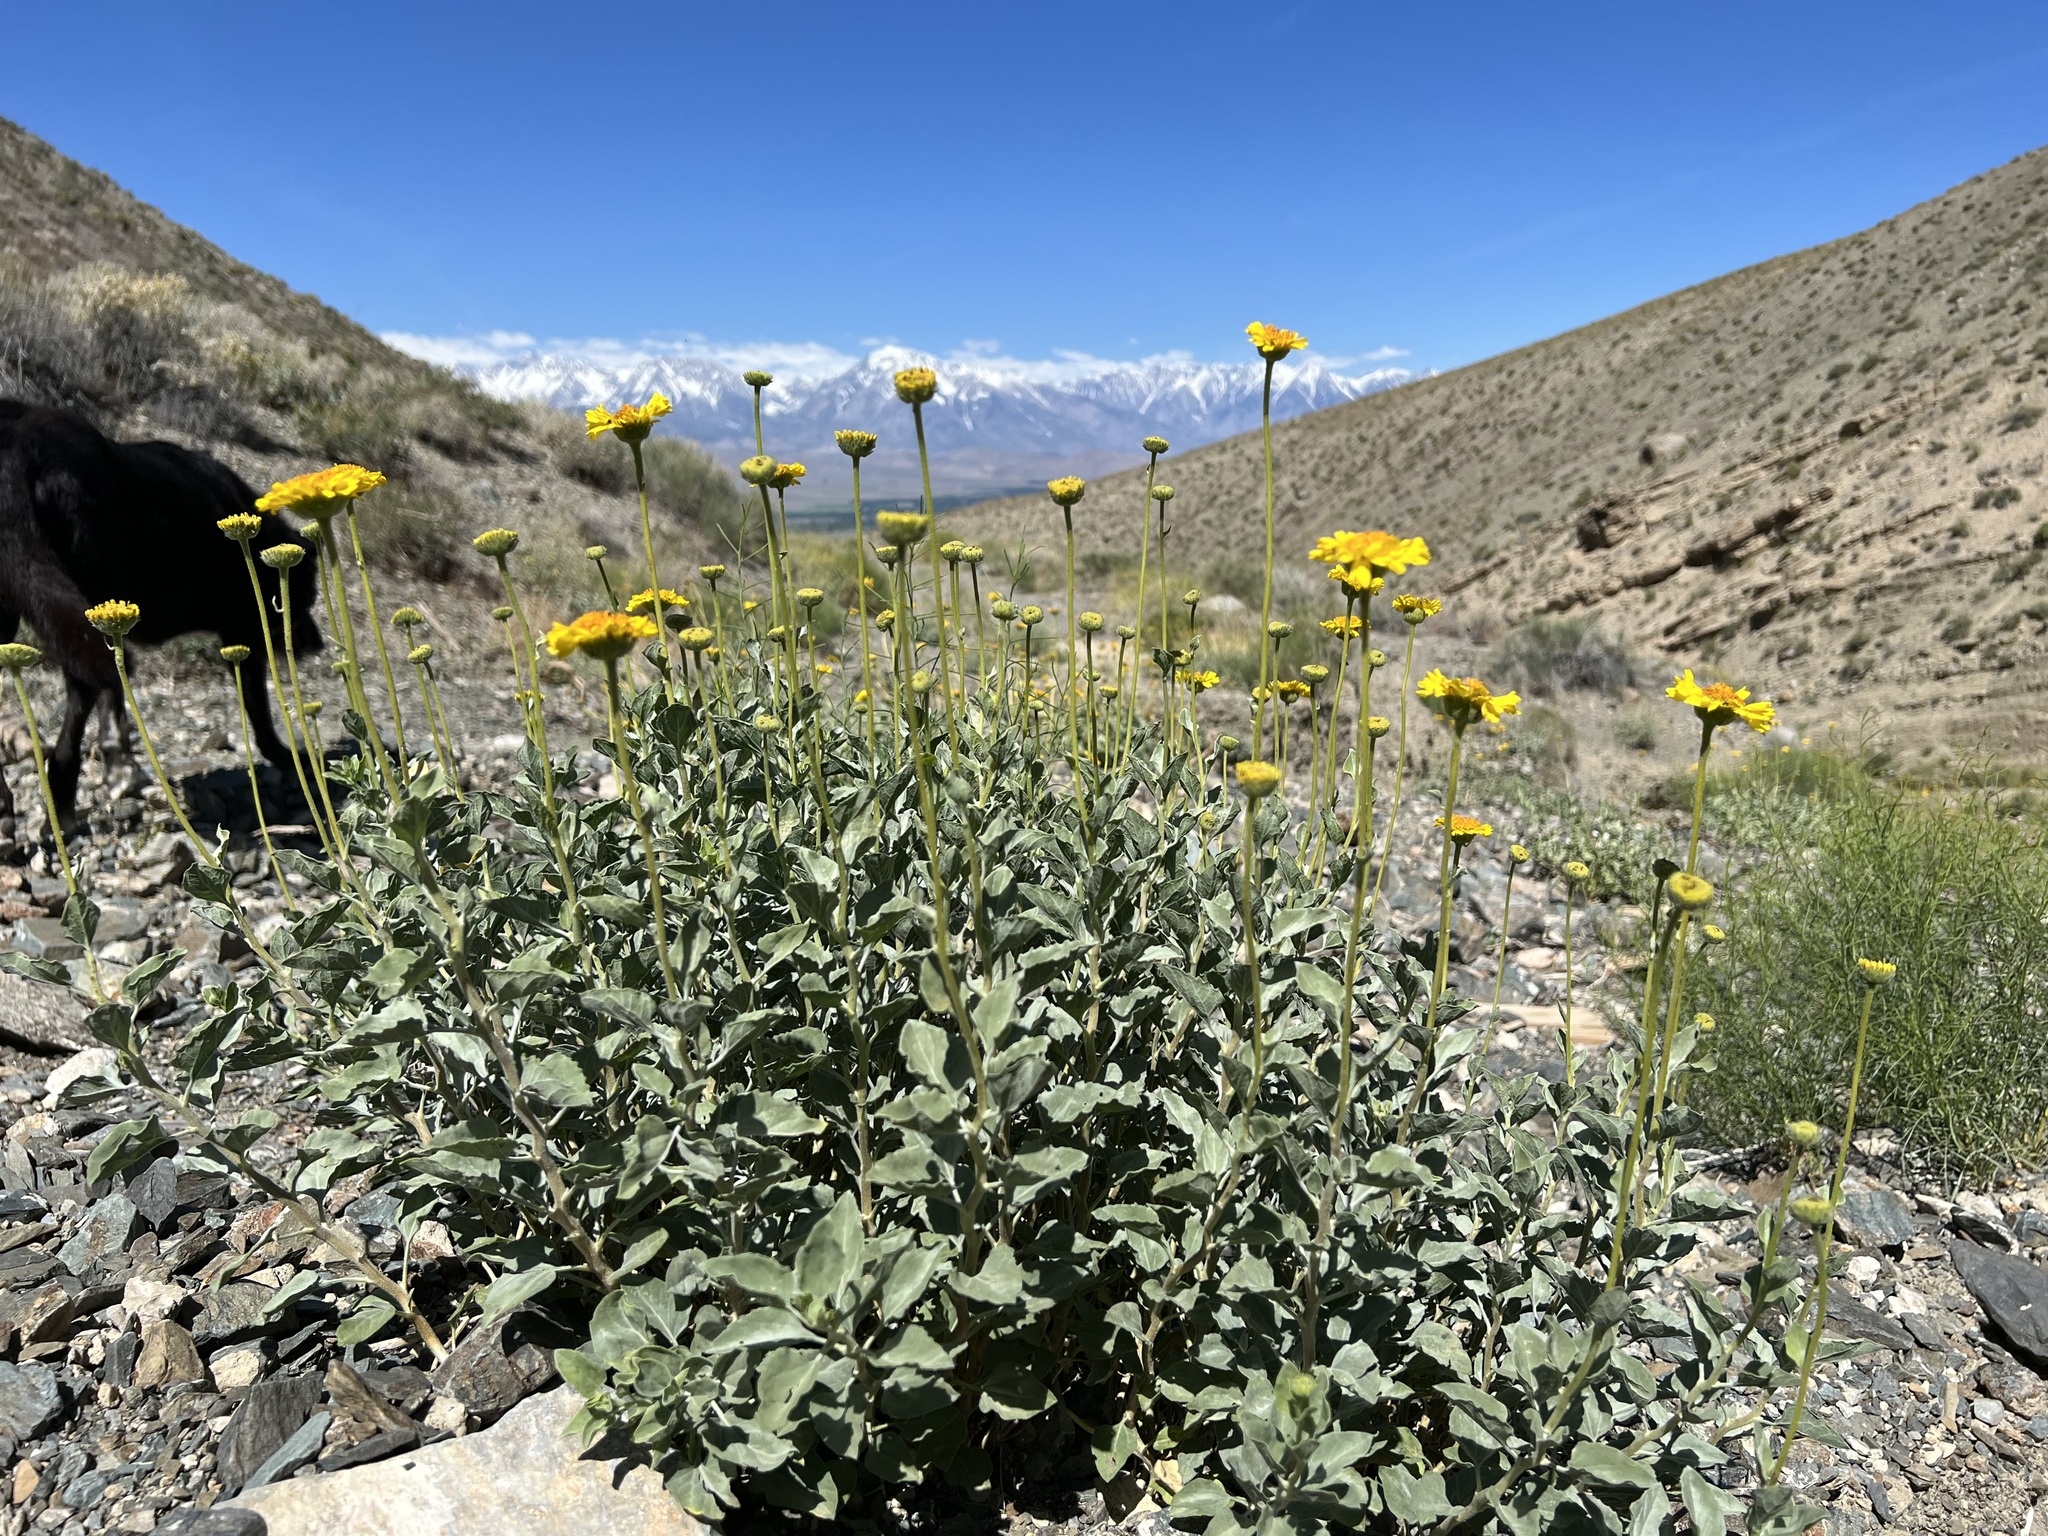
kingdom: Plantae
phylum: Tracheophyta
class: Magnoliopsida
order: Asterales
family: Asteraceae
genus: Encelia
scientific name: Encelia actoni
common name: Acton encelia
